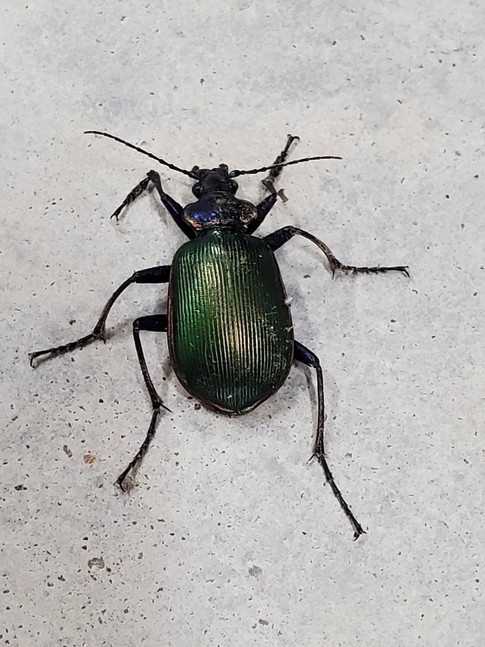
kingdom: Animalia
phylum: Arthropoda
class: Insecta
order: Coleoptera
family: Carabidae
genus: Calosoma
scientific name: Calosoma scrutator
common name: Fiery searcher beetle
